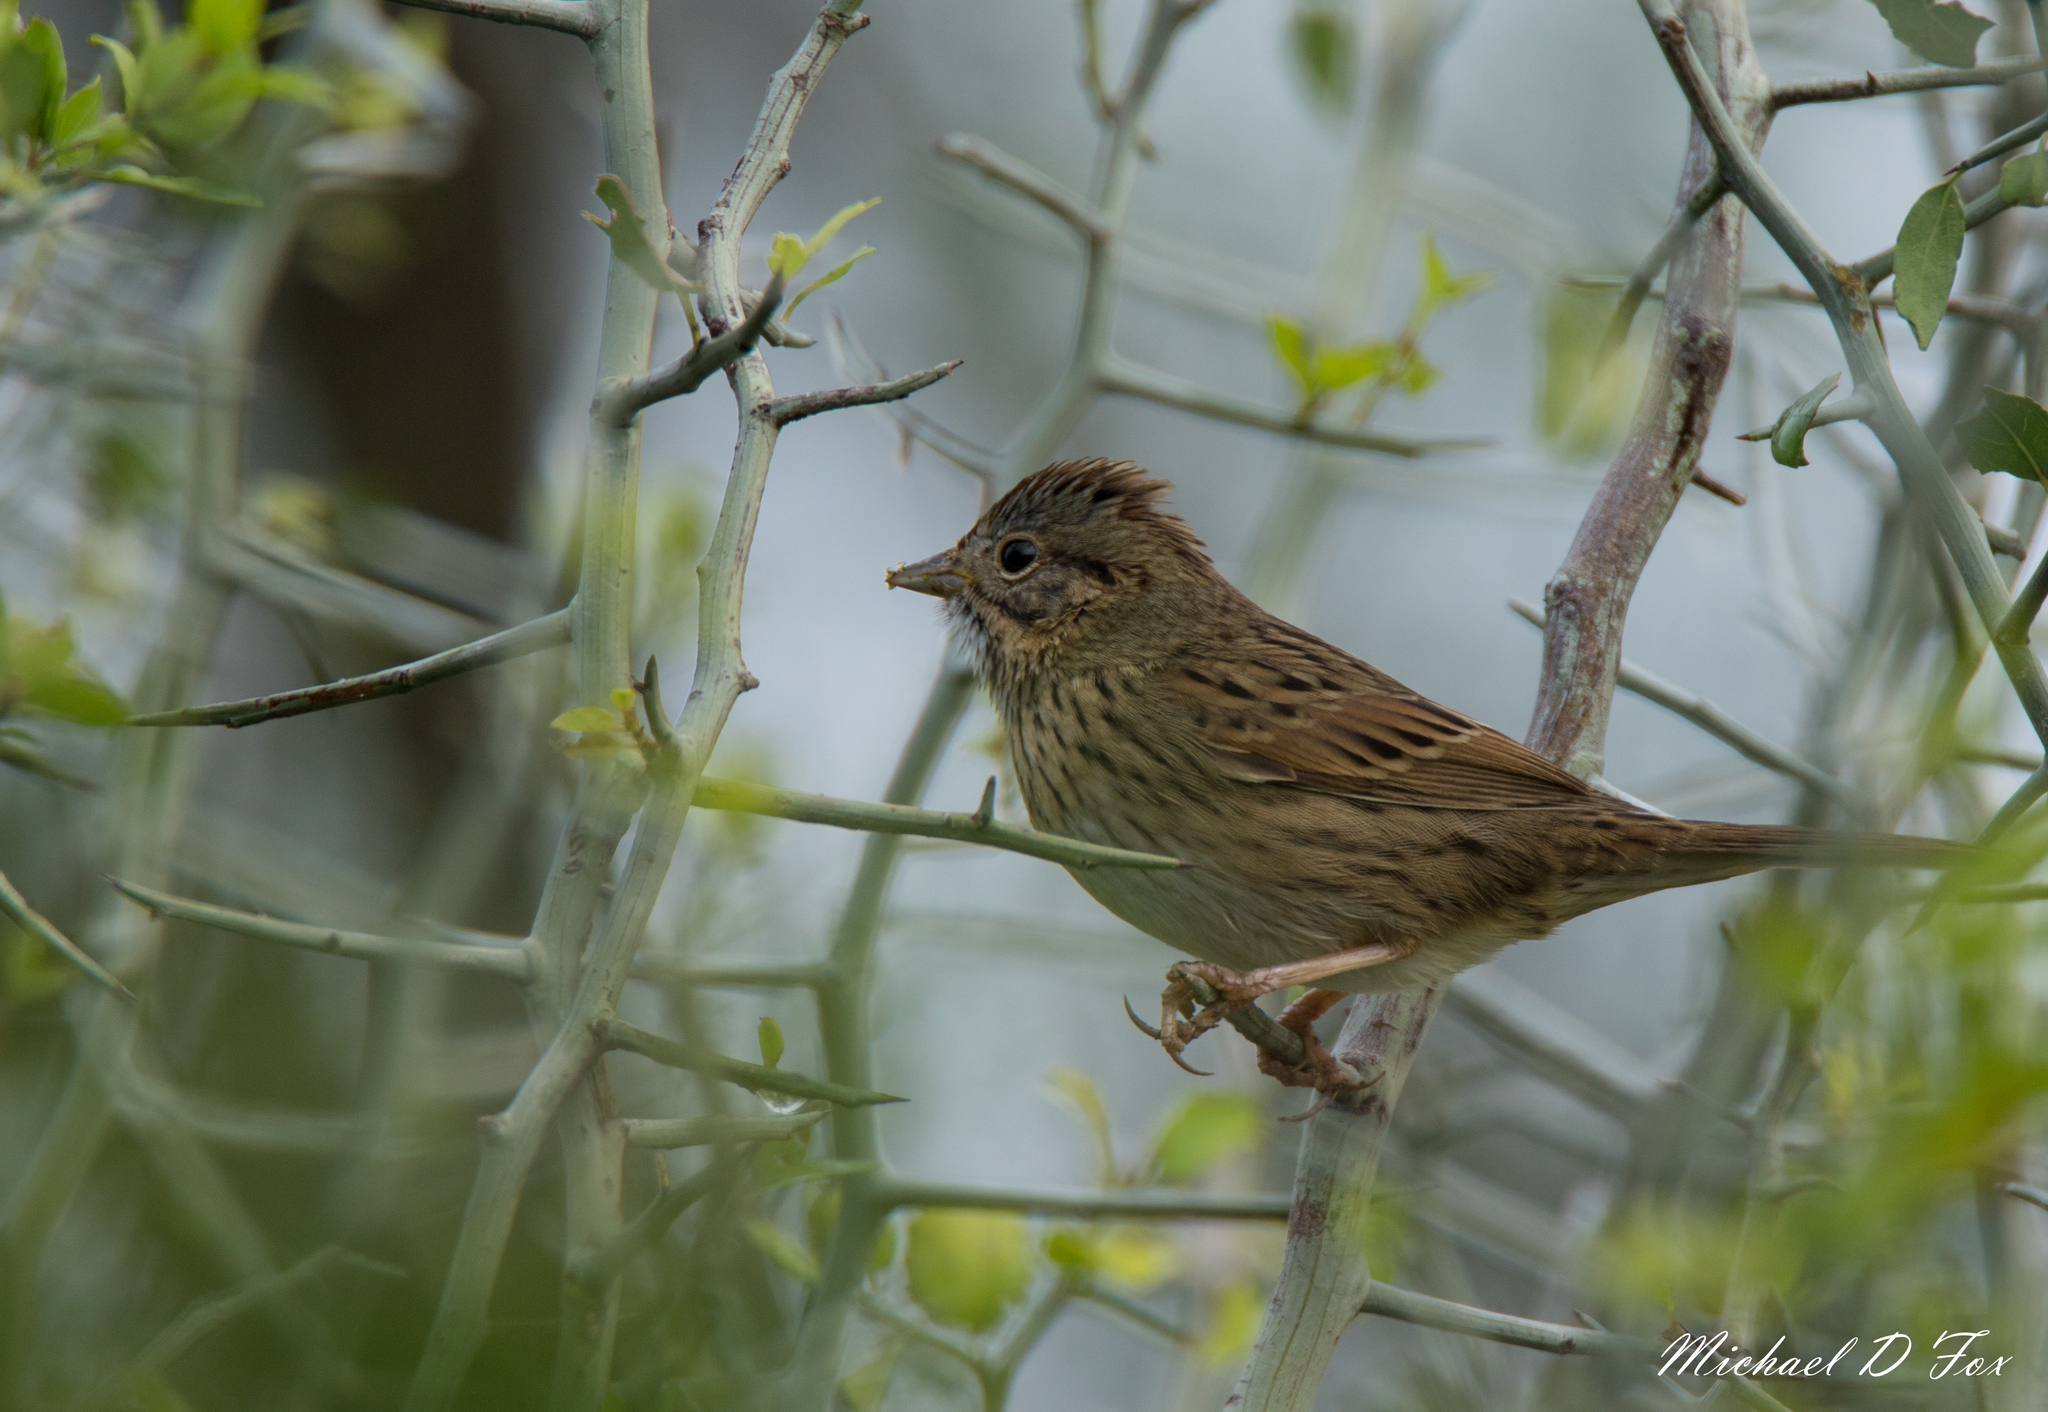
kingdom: Animalia
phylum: Chordata
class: Aves
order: Passeriformes
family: Passerellidae
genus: Melospiza
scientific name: Melospiza lincolnii
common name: Lincoln's sparrow
